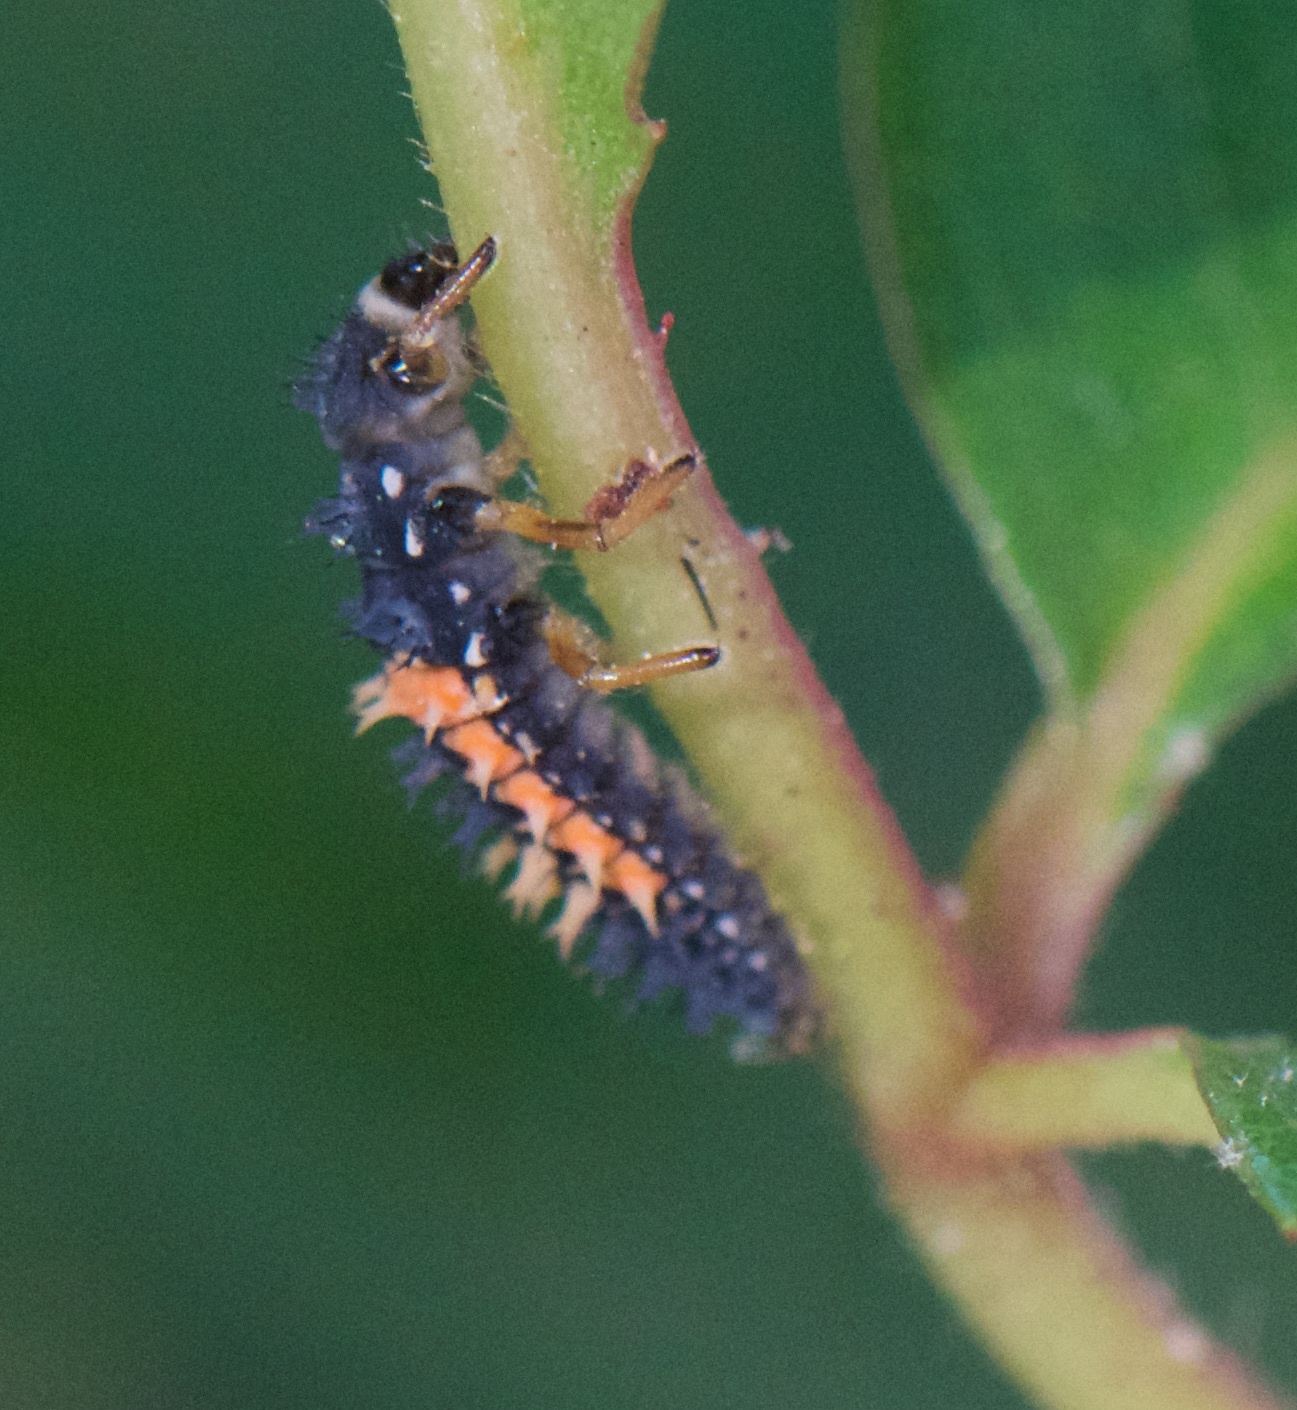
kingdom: Animalia
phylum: Arthropoda
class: Insecta
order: Coleoptera
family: Coccinellidae
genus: Harmonia
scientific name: Harmonia axyridis
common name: Harlequin ladybird
